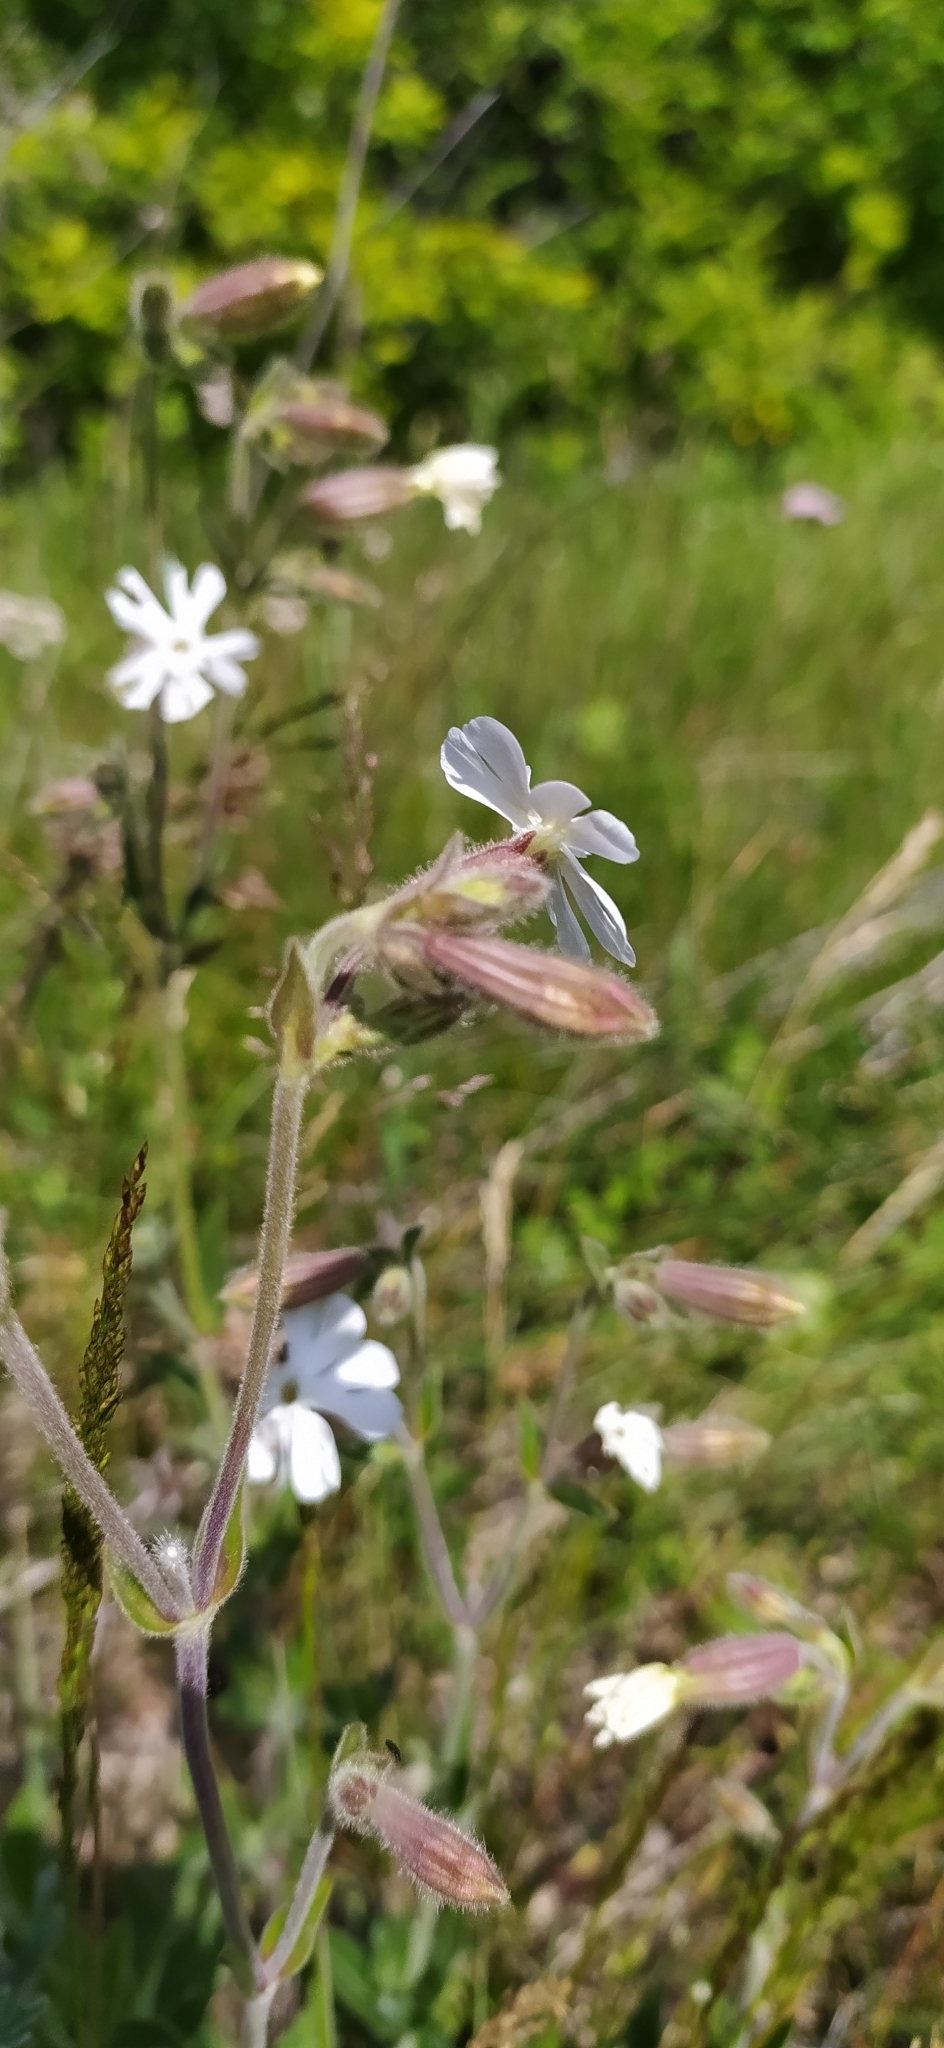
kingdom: Plantae
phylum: Tracheophyta
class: Magnoliopsida
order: Caryophyllales
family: Caryophyllaceae
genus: Silene
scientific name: Silene latifolia
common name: White campion
